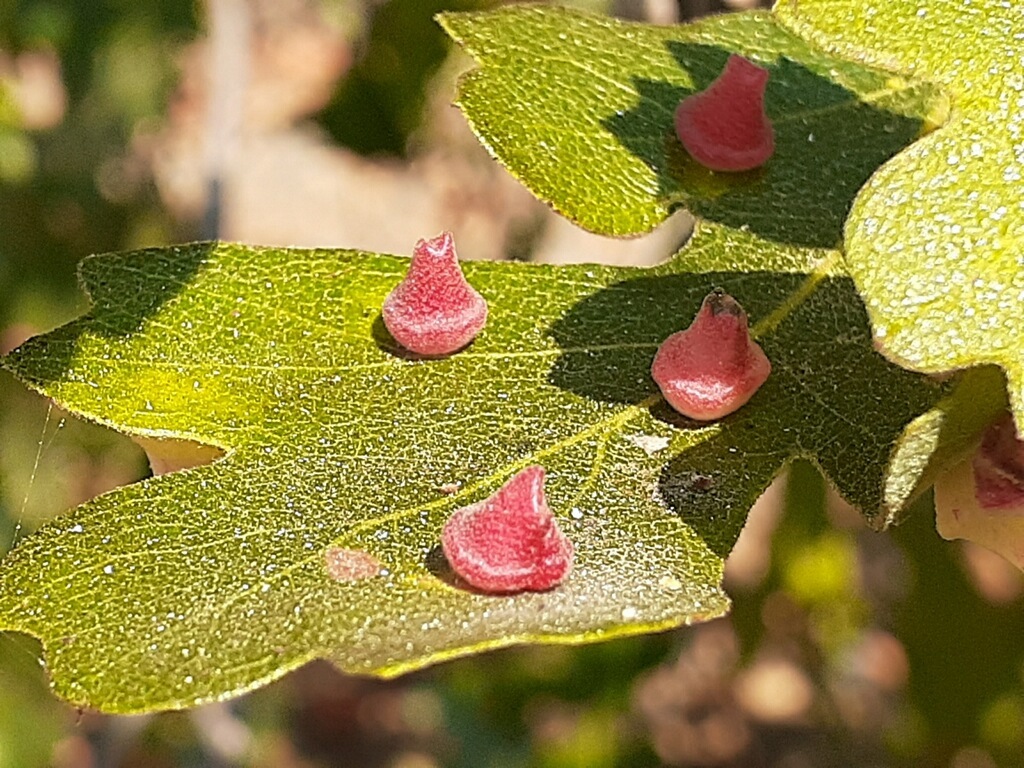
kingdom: Animalia
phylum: Arthropoda
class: Insecta
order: Hymenoptera
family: Cynipidae
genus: Andricus
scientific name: Andricus
